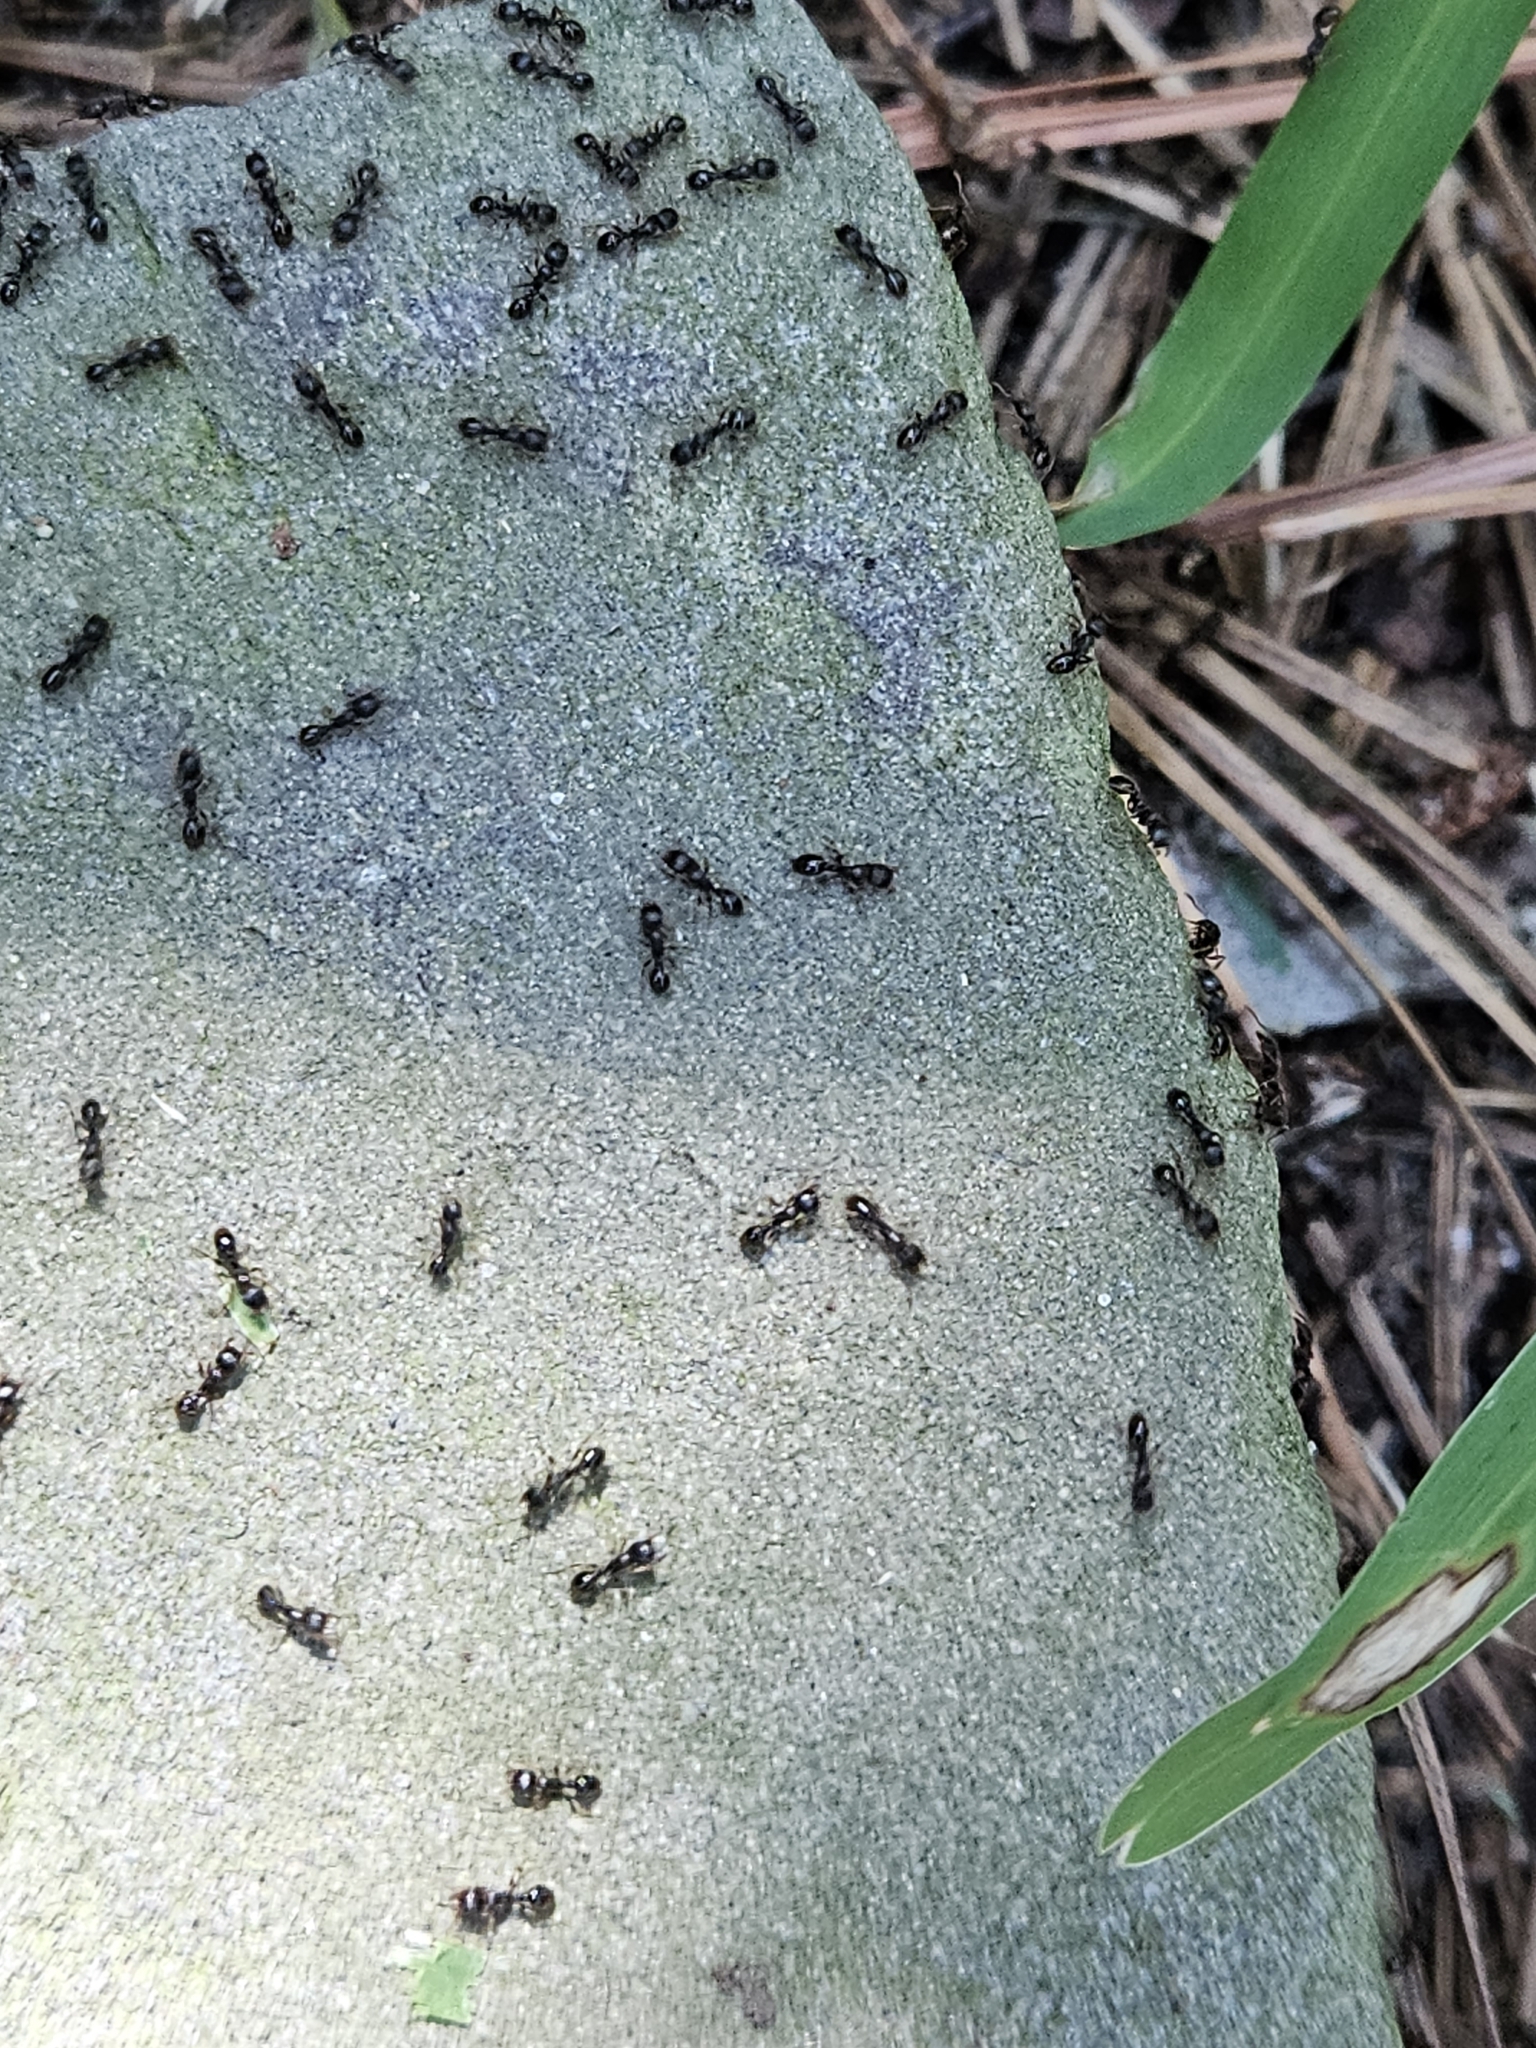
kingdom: Animalia
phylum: Arthropoda
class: Insecta
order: Hymenoptera
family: Formicidae
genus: Tetramorium
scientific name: Tetramorium immigrans
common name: Pavement ant
